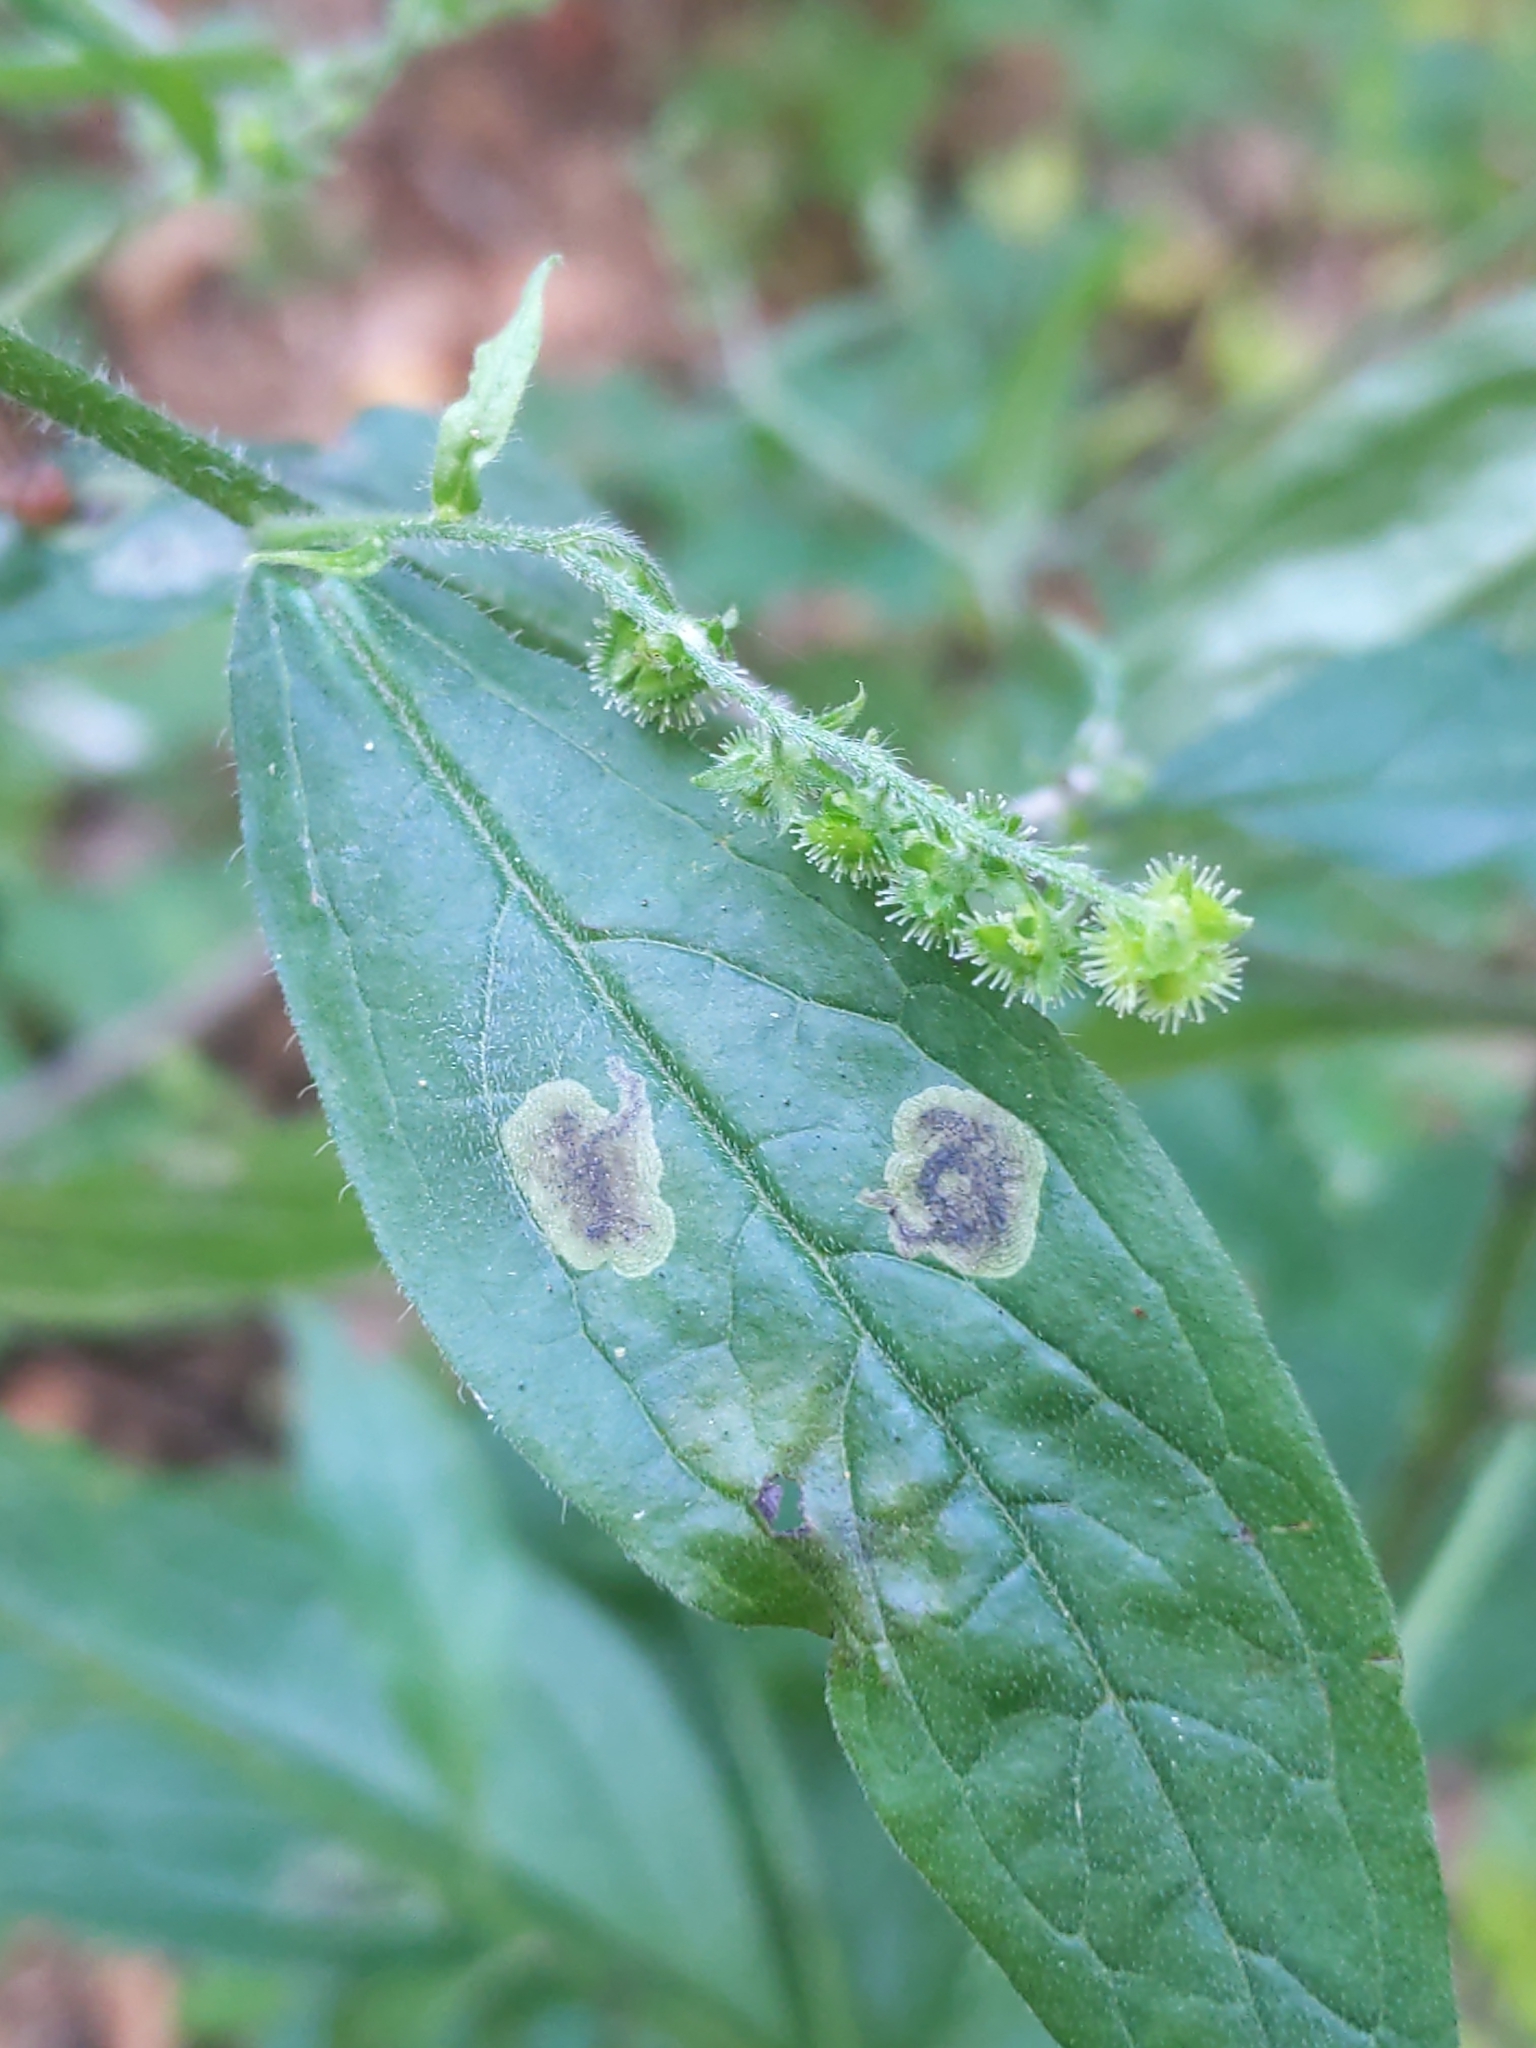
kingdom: Animalia
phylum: Arthropoda
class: Insecta
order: Diptera
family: Agromyzidae
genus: Agromyza
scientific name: Agromyza
